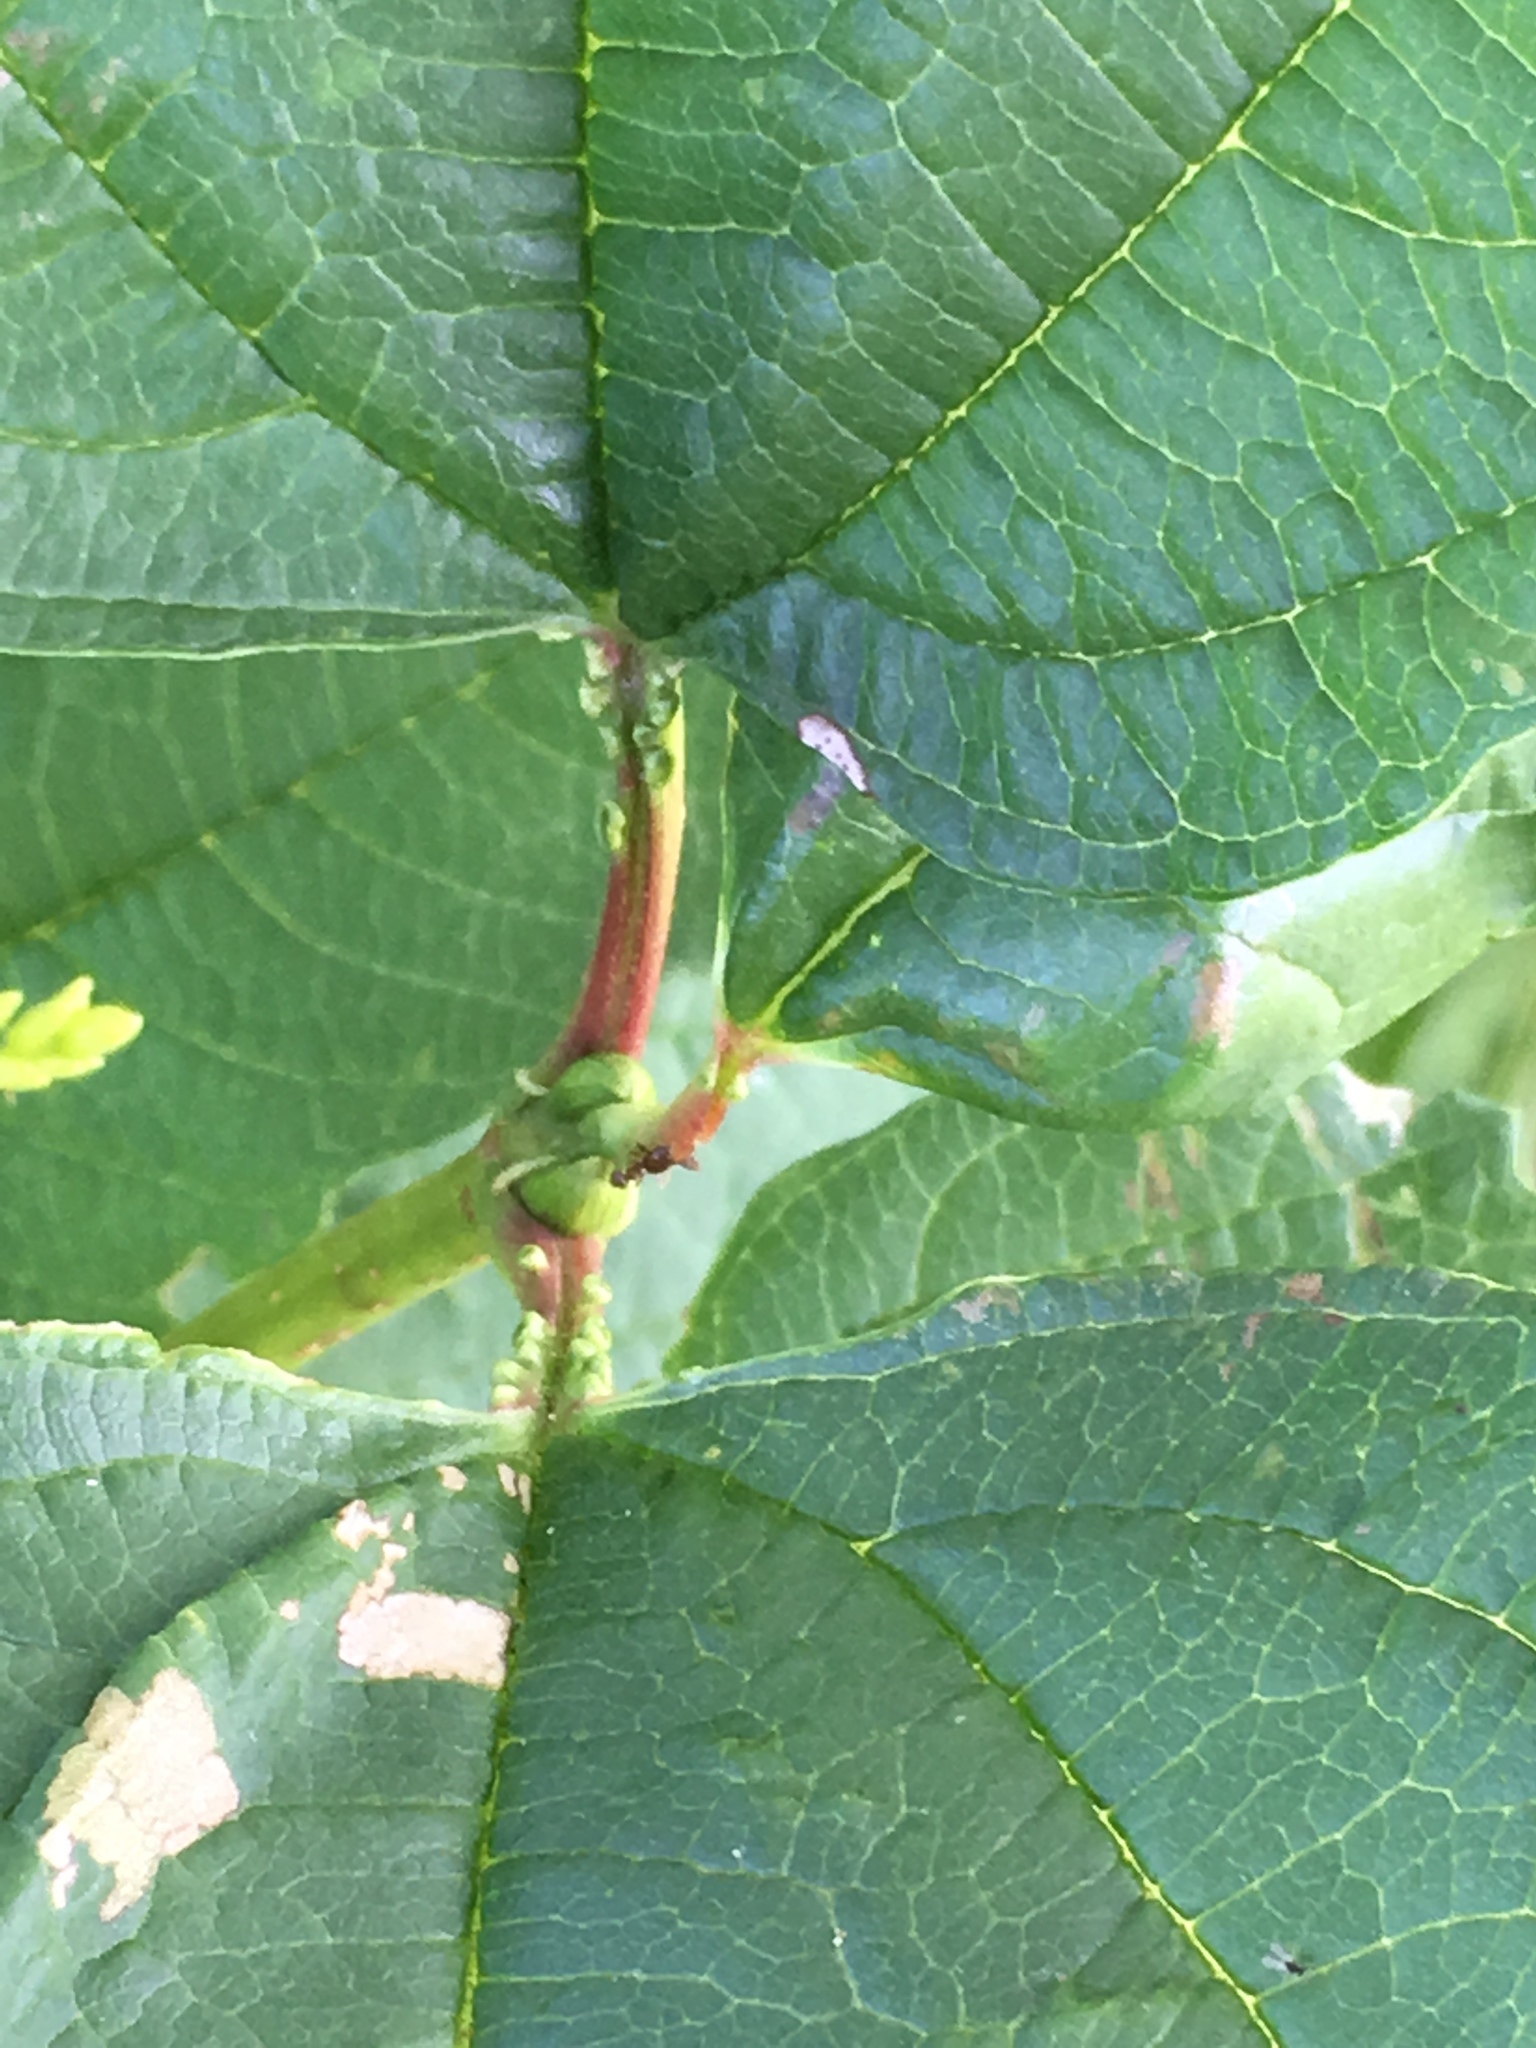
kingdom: Plantae
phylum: Tracheophyta
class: Magnoliopsida
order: Dipsacales
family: Viburnaceae
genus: Viburnum
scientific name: Viburnum opulus
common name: Guelder-rose
